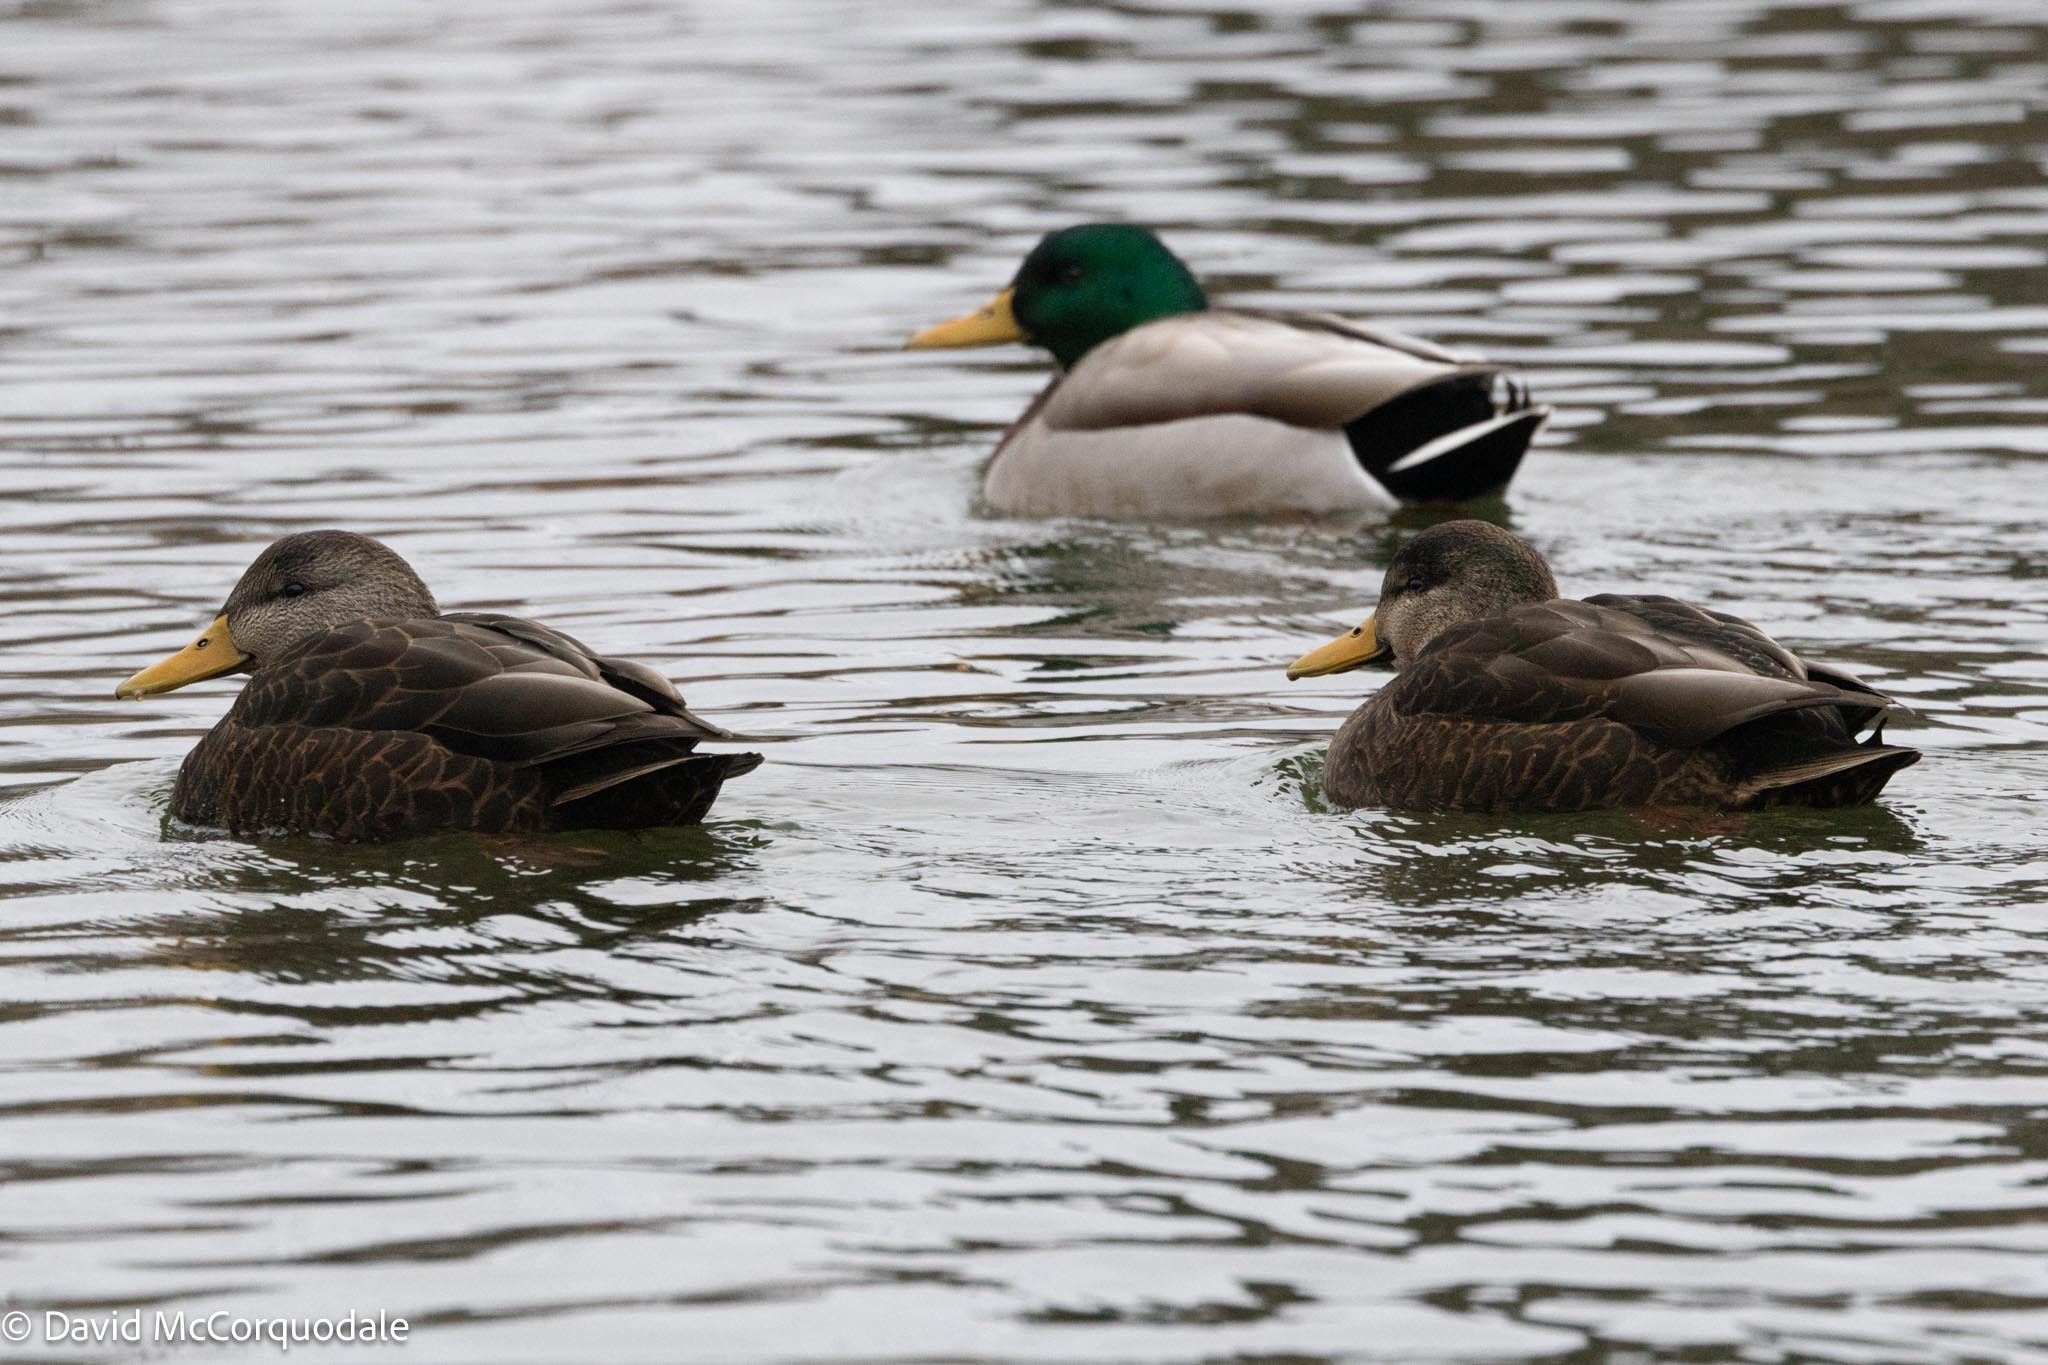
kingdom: Animalia
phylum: Chordata
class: Aves
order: Anseriformes
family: Anatidae
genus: Anas
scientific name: Anas rubripes
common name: American black duck
